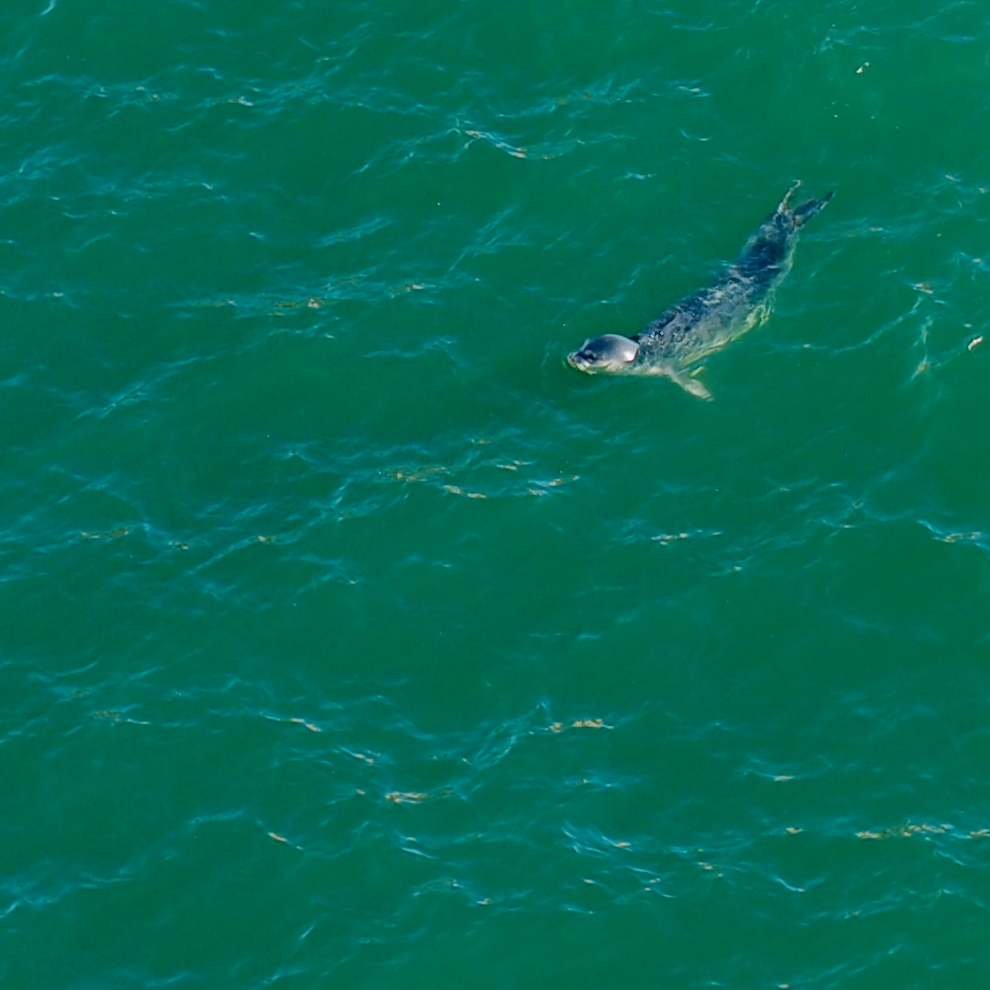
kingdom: Animalia
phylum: Chordata
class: Mammalia
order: Carnivora
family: Phocidae
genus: Monachus
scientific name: Monachus monachus
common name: Mediterranean monk seal
